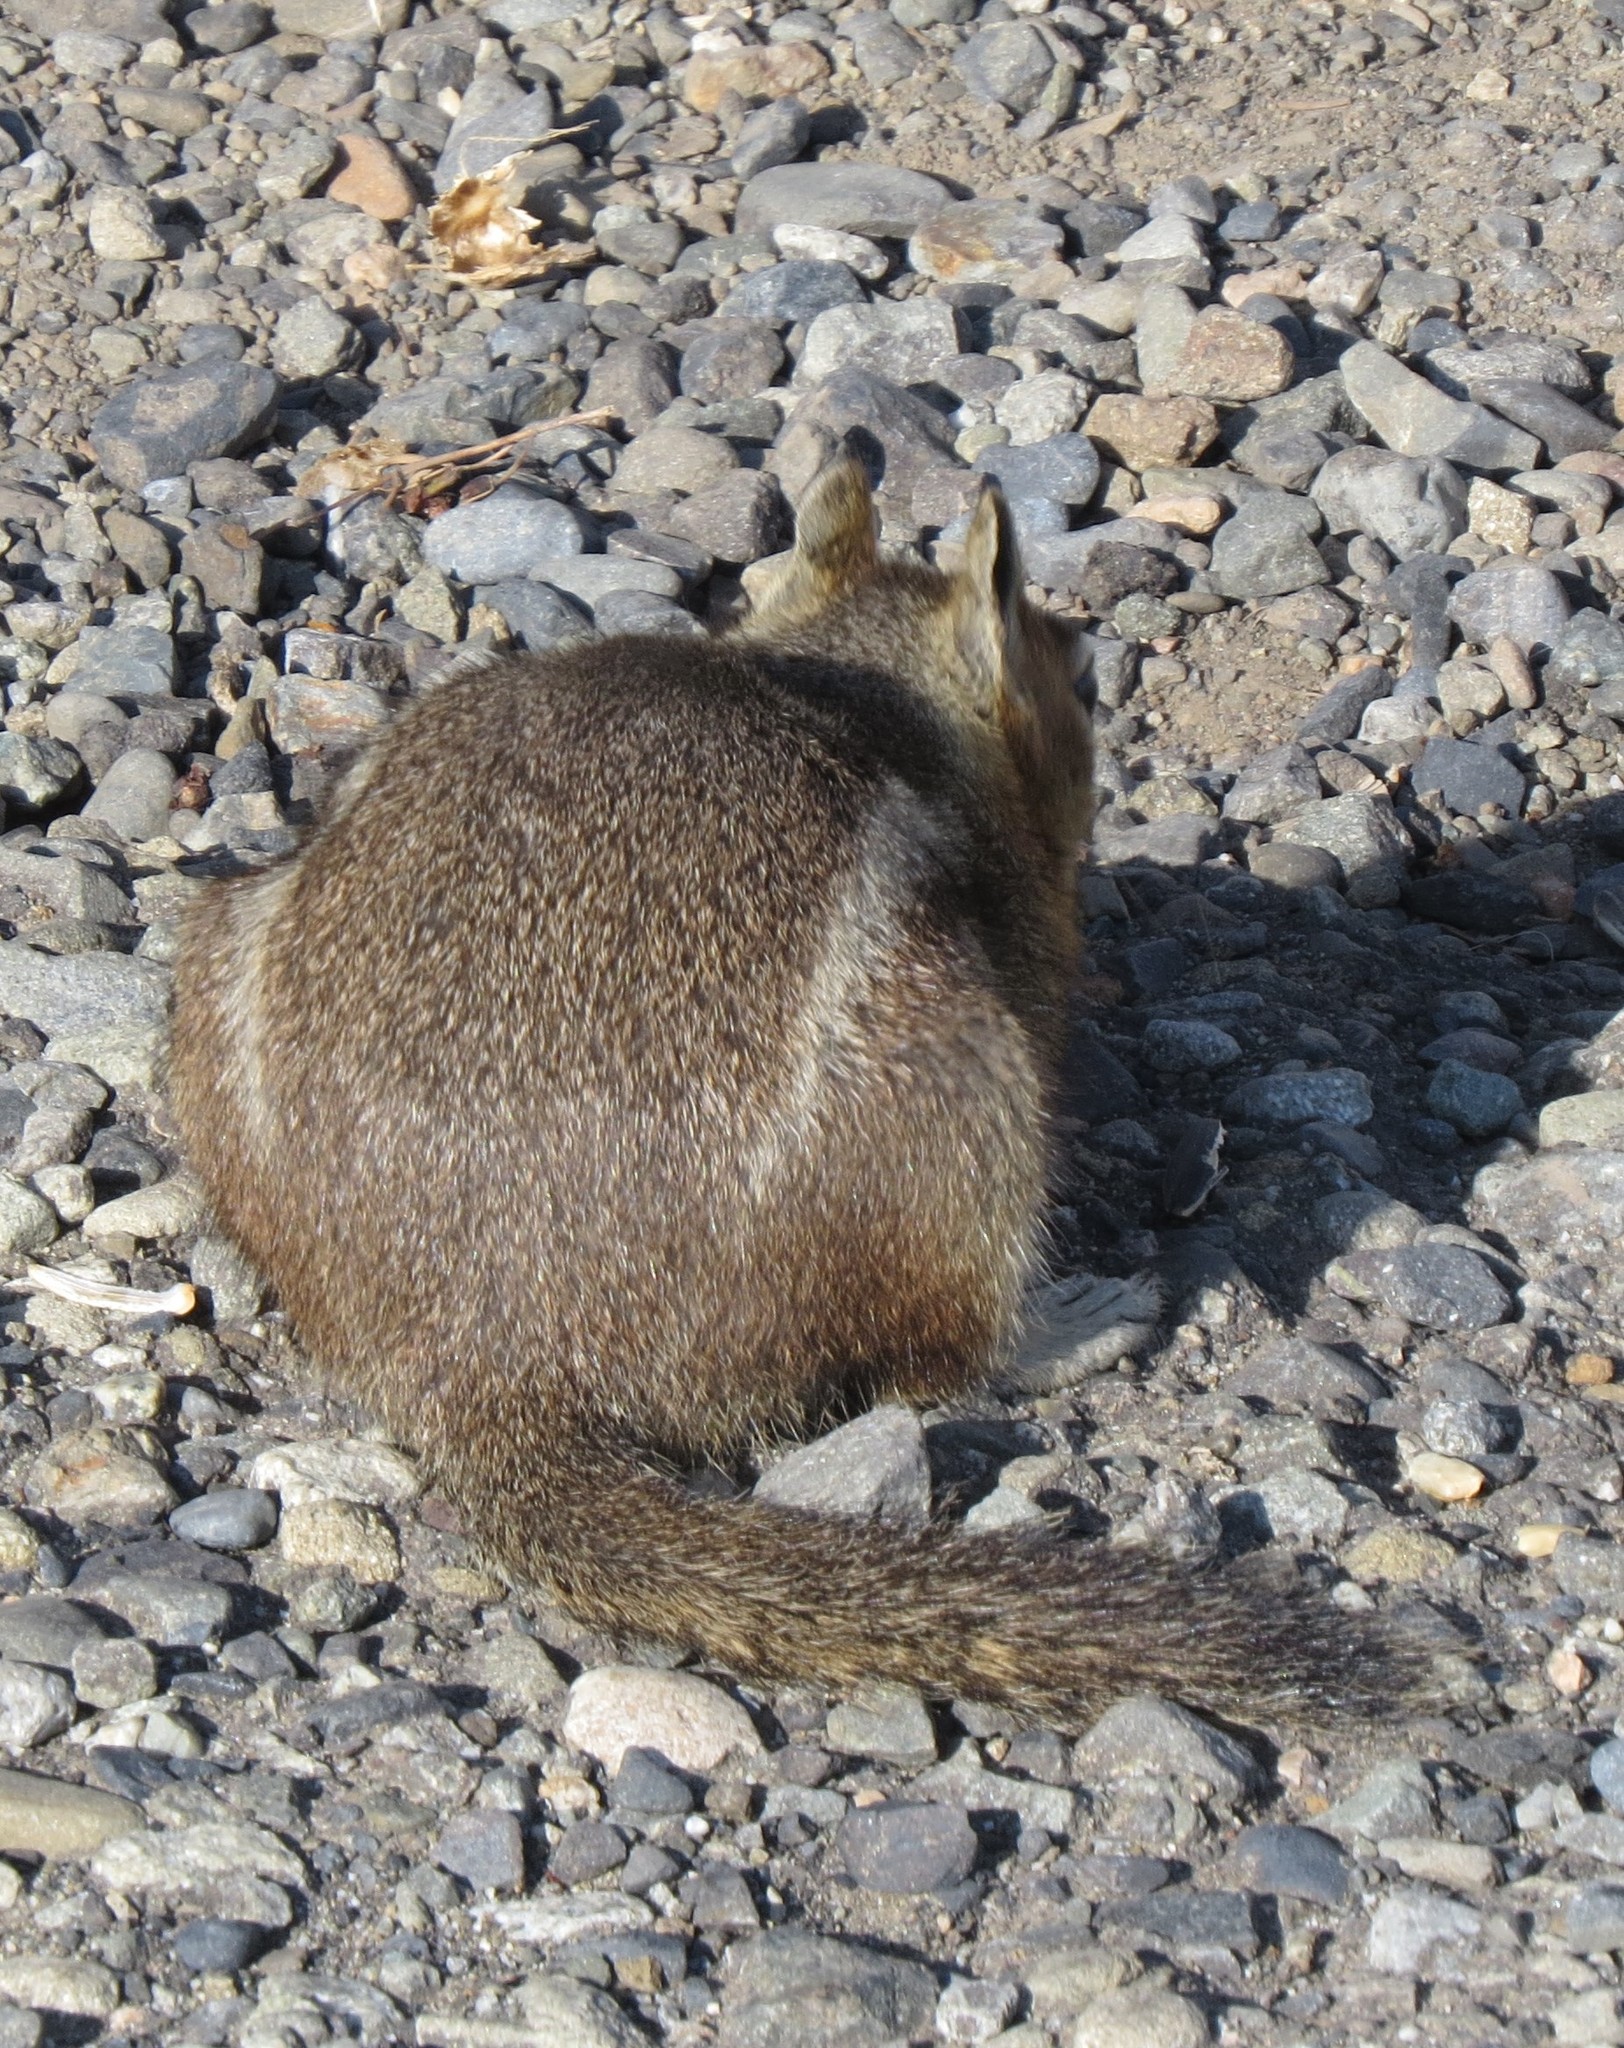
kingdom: Animalia
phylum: Chordata
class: Mammalia
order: Rodentia
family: Sciuridae
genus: Callospermophilus
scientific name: Callospermophilus saturatus
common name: Cascade golden-mantled ground squirrel
